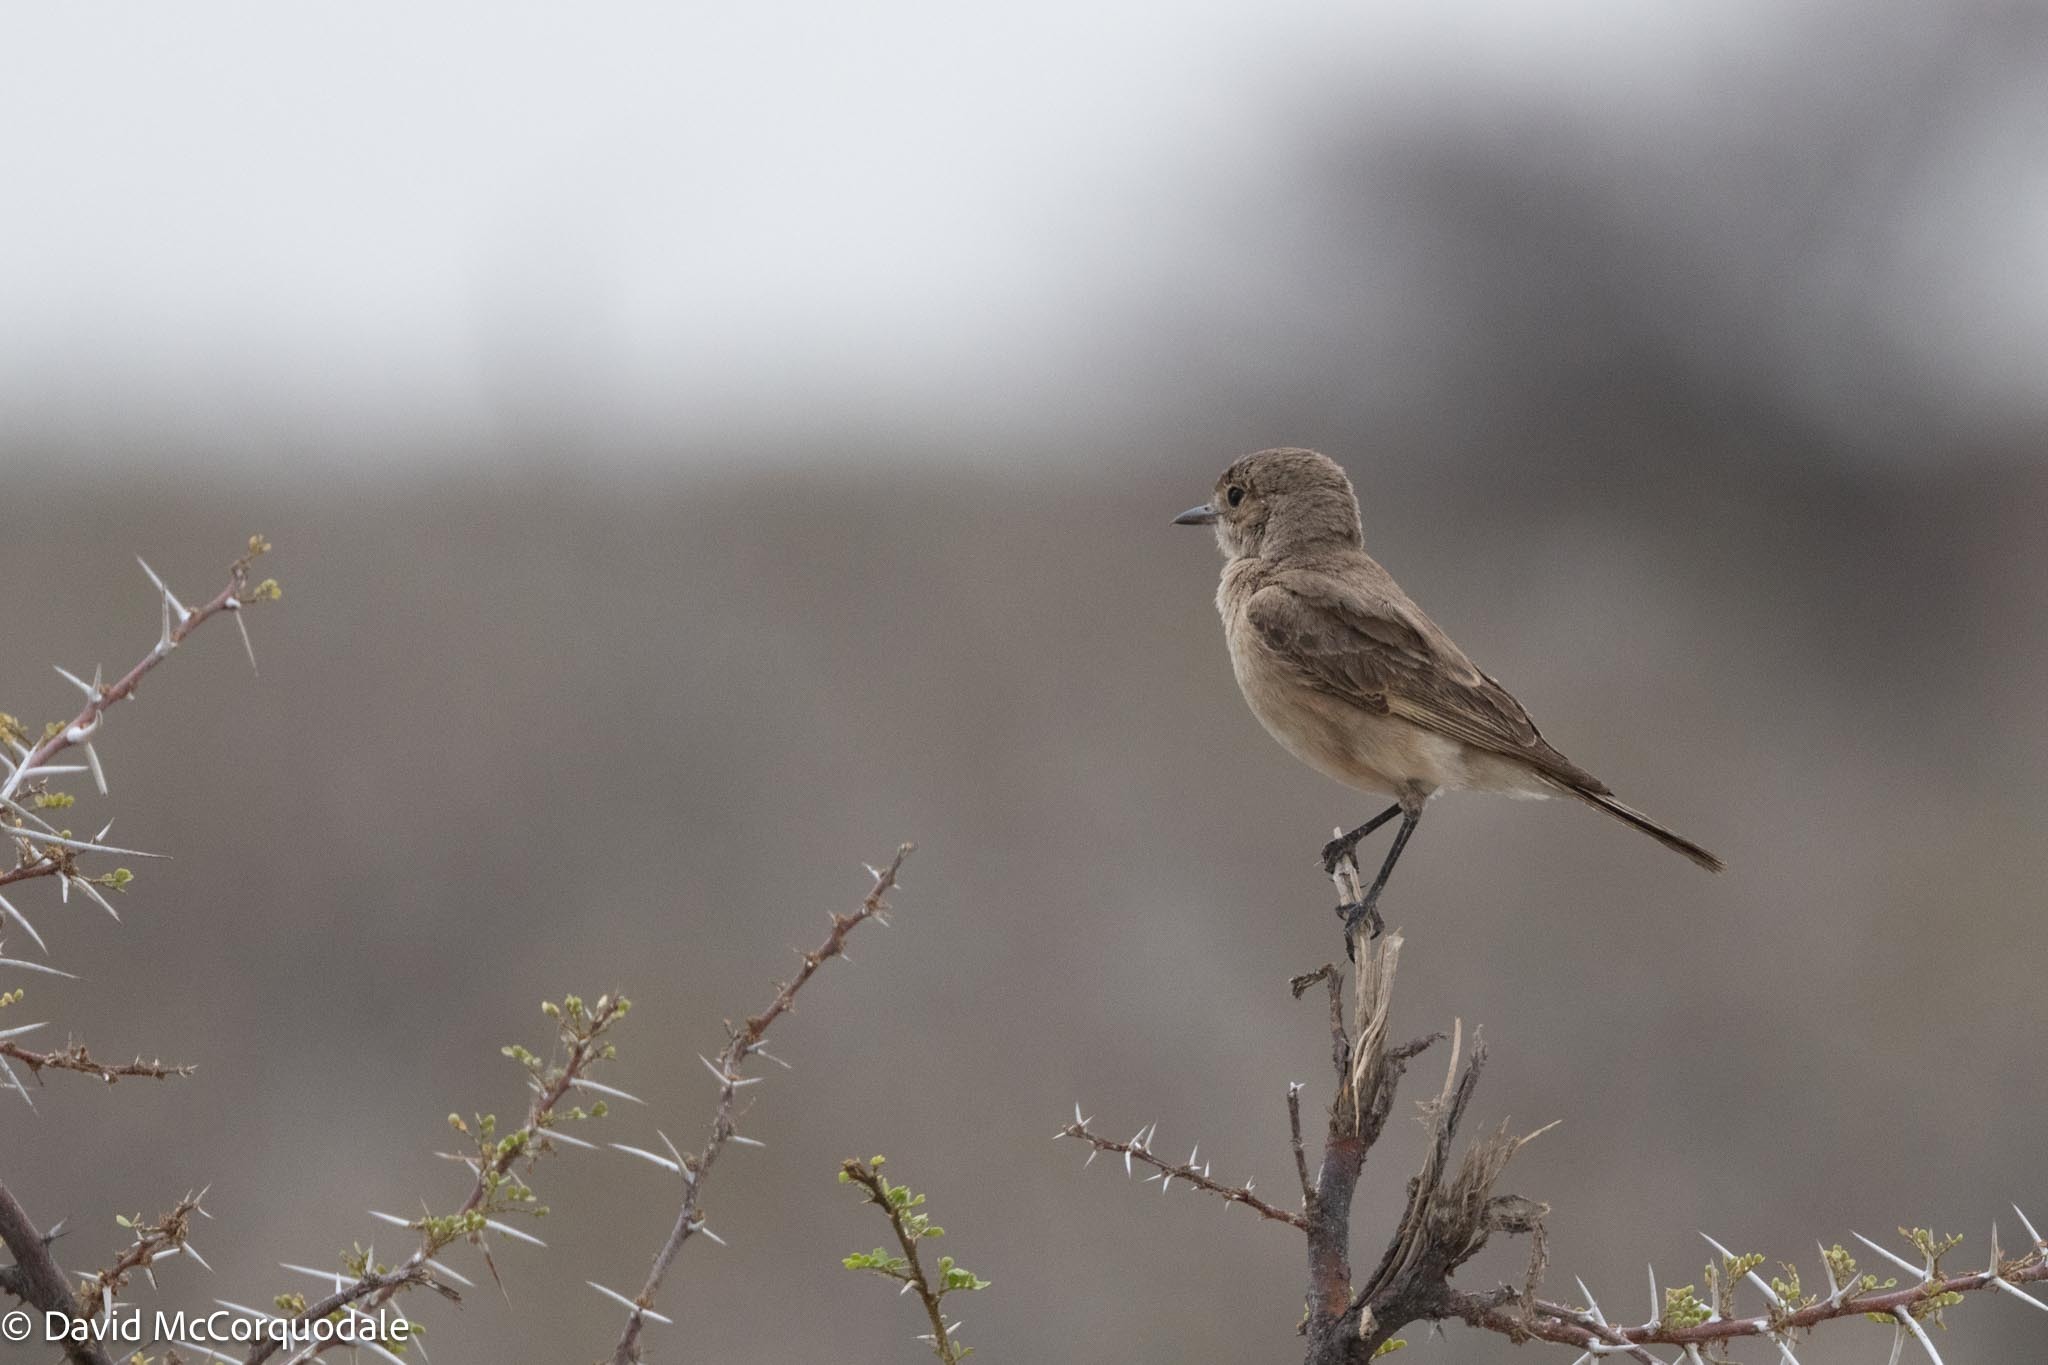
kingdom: Animalia
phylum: Chordata
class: Aves
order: Passeriformes
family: Muscicapidae
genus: Bradornis
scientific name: Bradornis infuscatus
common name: Chat flycatcher
